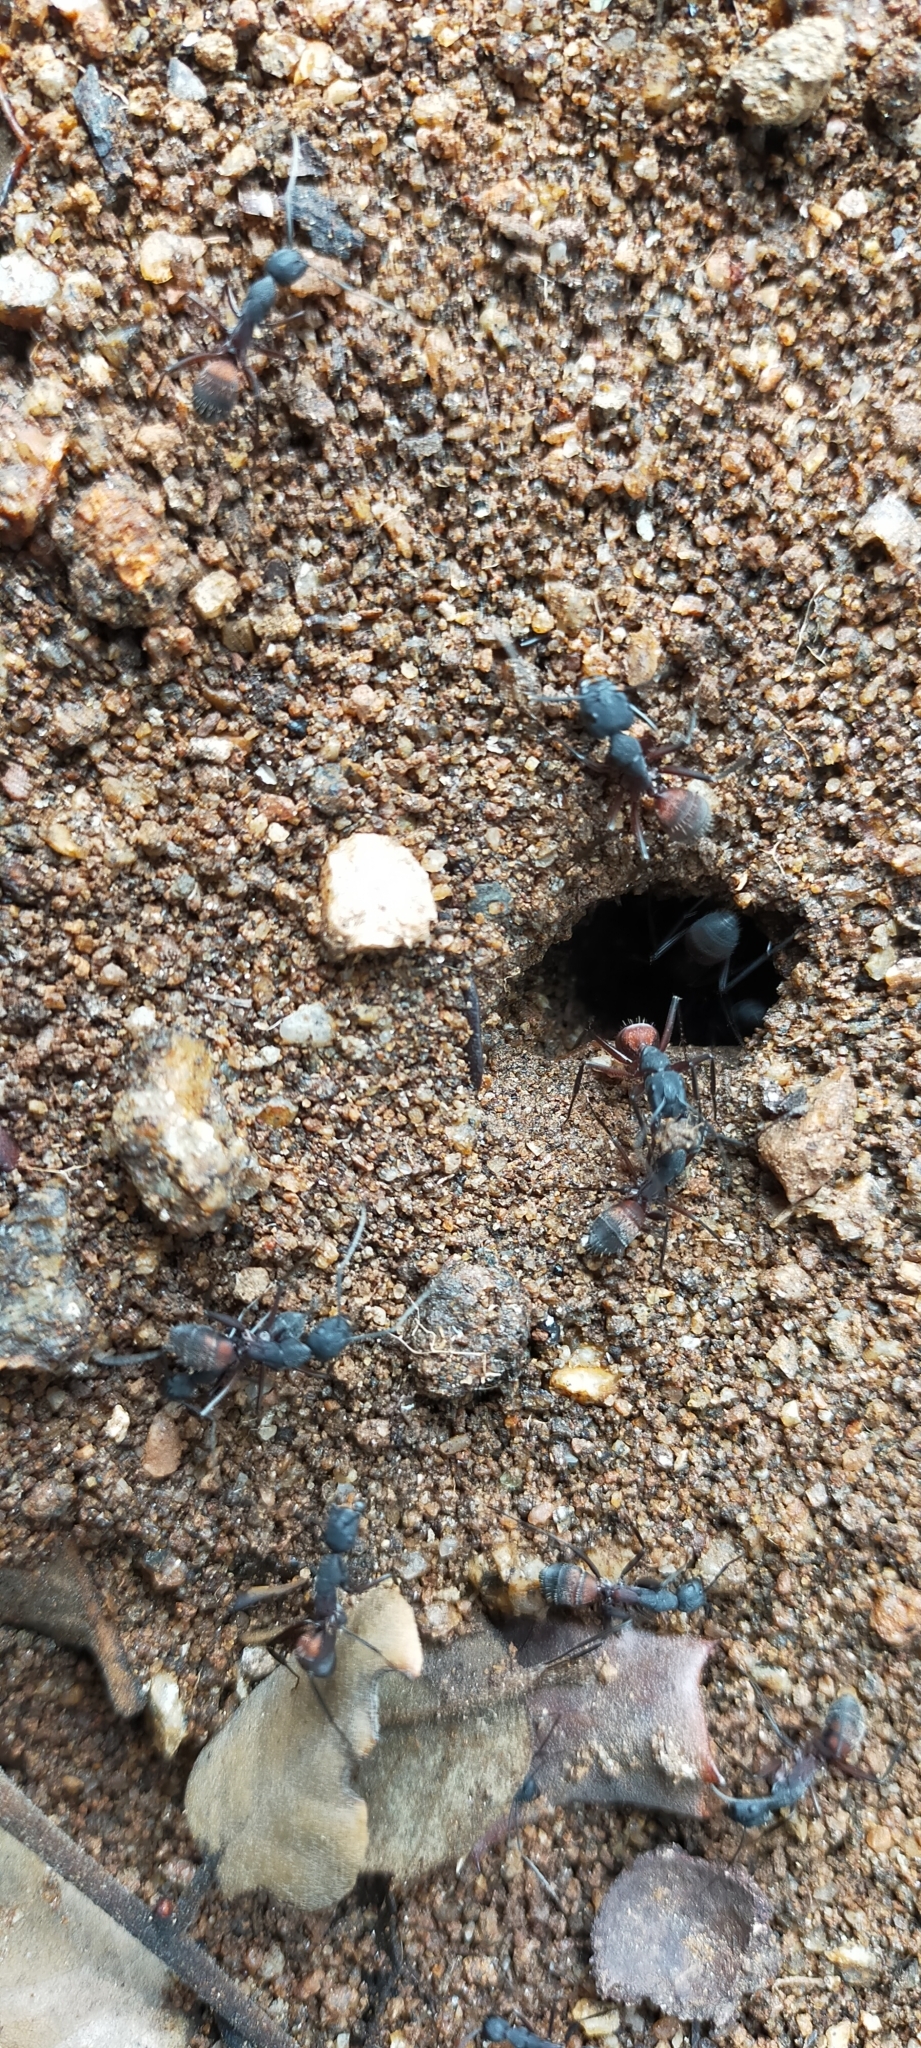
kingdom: Animalia
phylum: Arthropoda
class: Insecta
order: Hymenoptera
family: Formicidae
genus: Camponotus
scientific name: Camponotus cruentatus
